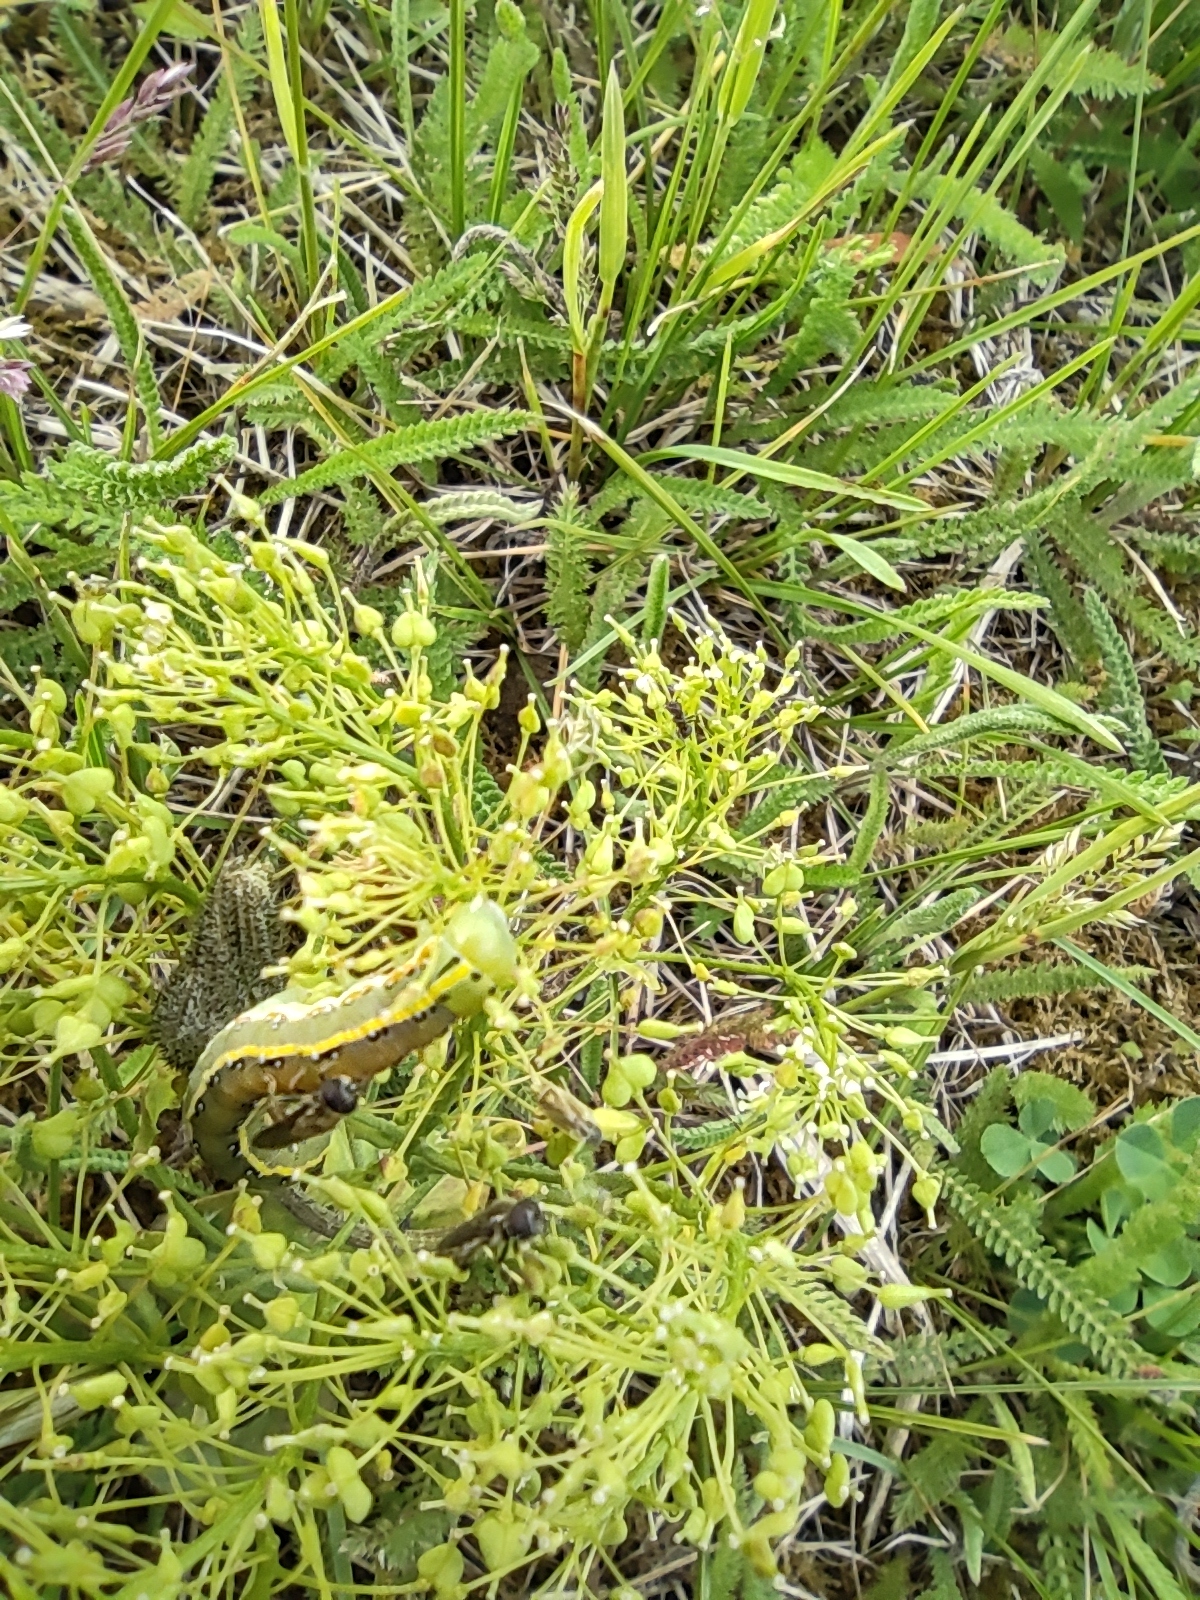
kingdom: Animalia
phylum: Arthropoda
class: Insecta
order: Lepidoptera
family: Noctuidae
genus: Xylena
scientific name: Xylena exsoleta
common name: Sword-grass
